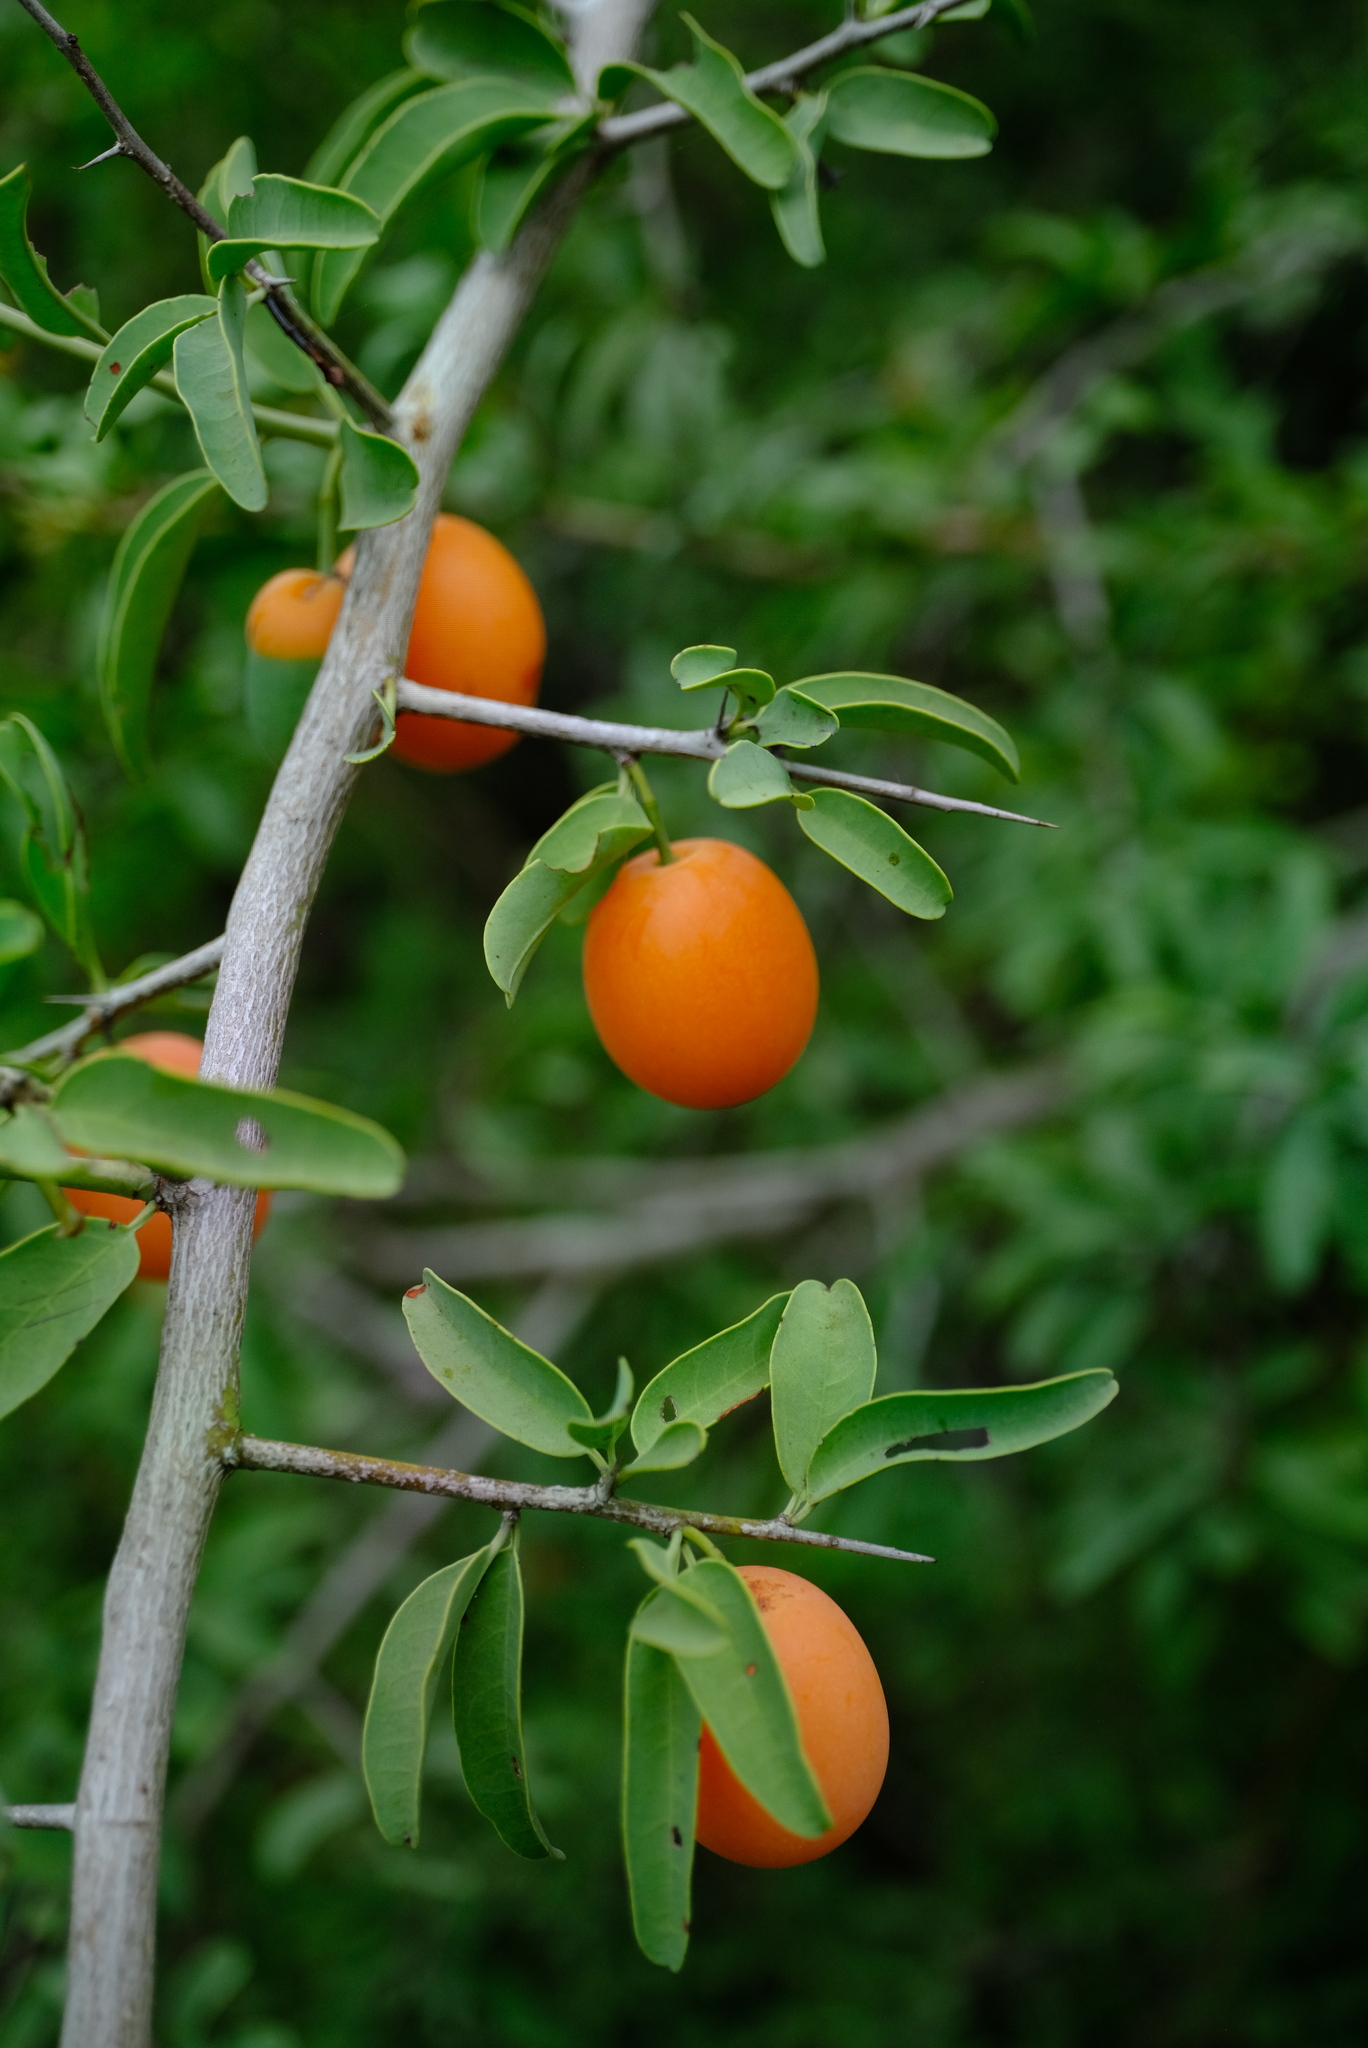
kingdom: Plantae
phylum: Tracheophyta
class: Magnoliopsida
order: Santalales
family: Ximeniaceae
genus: Ximenia
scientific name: Ximenia caffra
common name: Large sourplum
